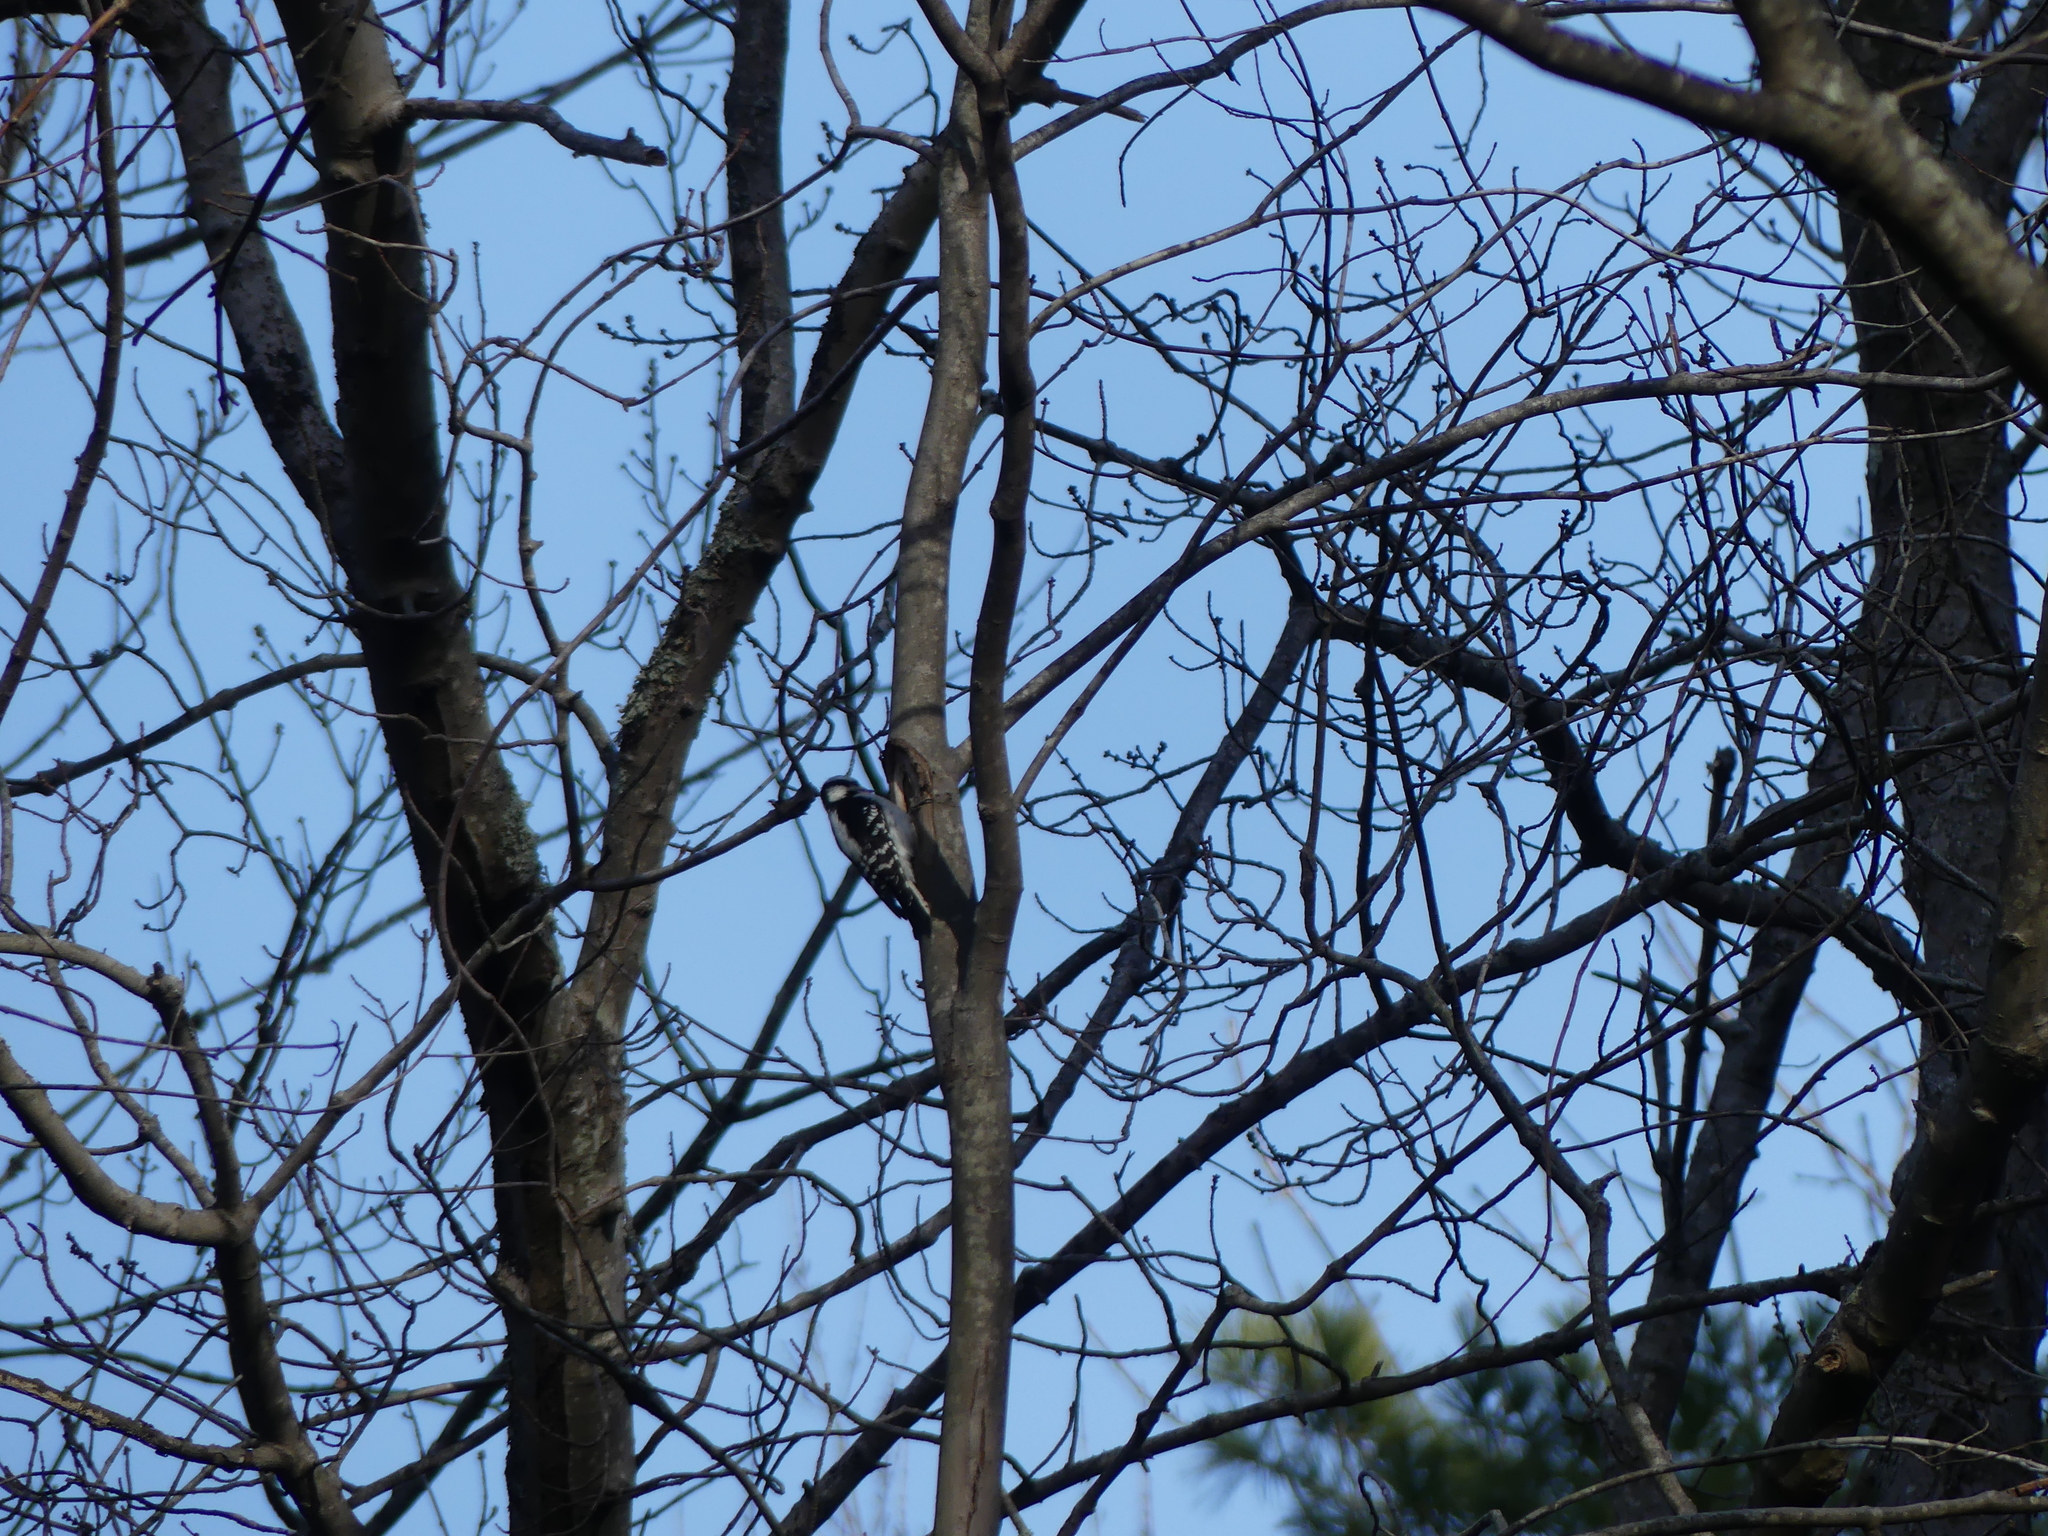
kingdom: Animalia
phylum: Chordata
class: Aves
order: Piciformes
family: Picidae
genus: Dryobates
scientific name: Dryobates pubescens
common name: Downy woodpecker
